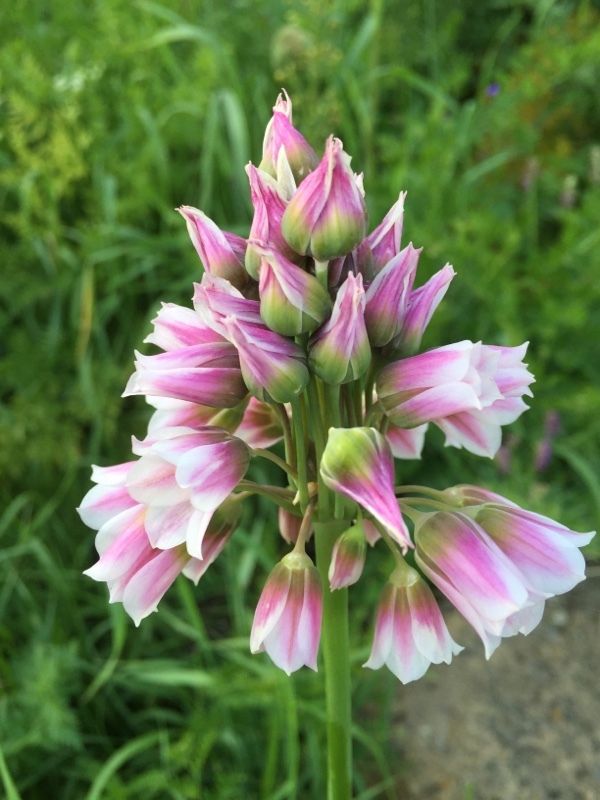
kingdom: Plantae
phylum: Tracheophyta
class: Liliopsida
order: Asparagales
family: Amaryllidaceae
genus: Allium
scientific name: Allium tripedale
